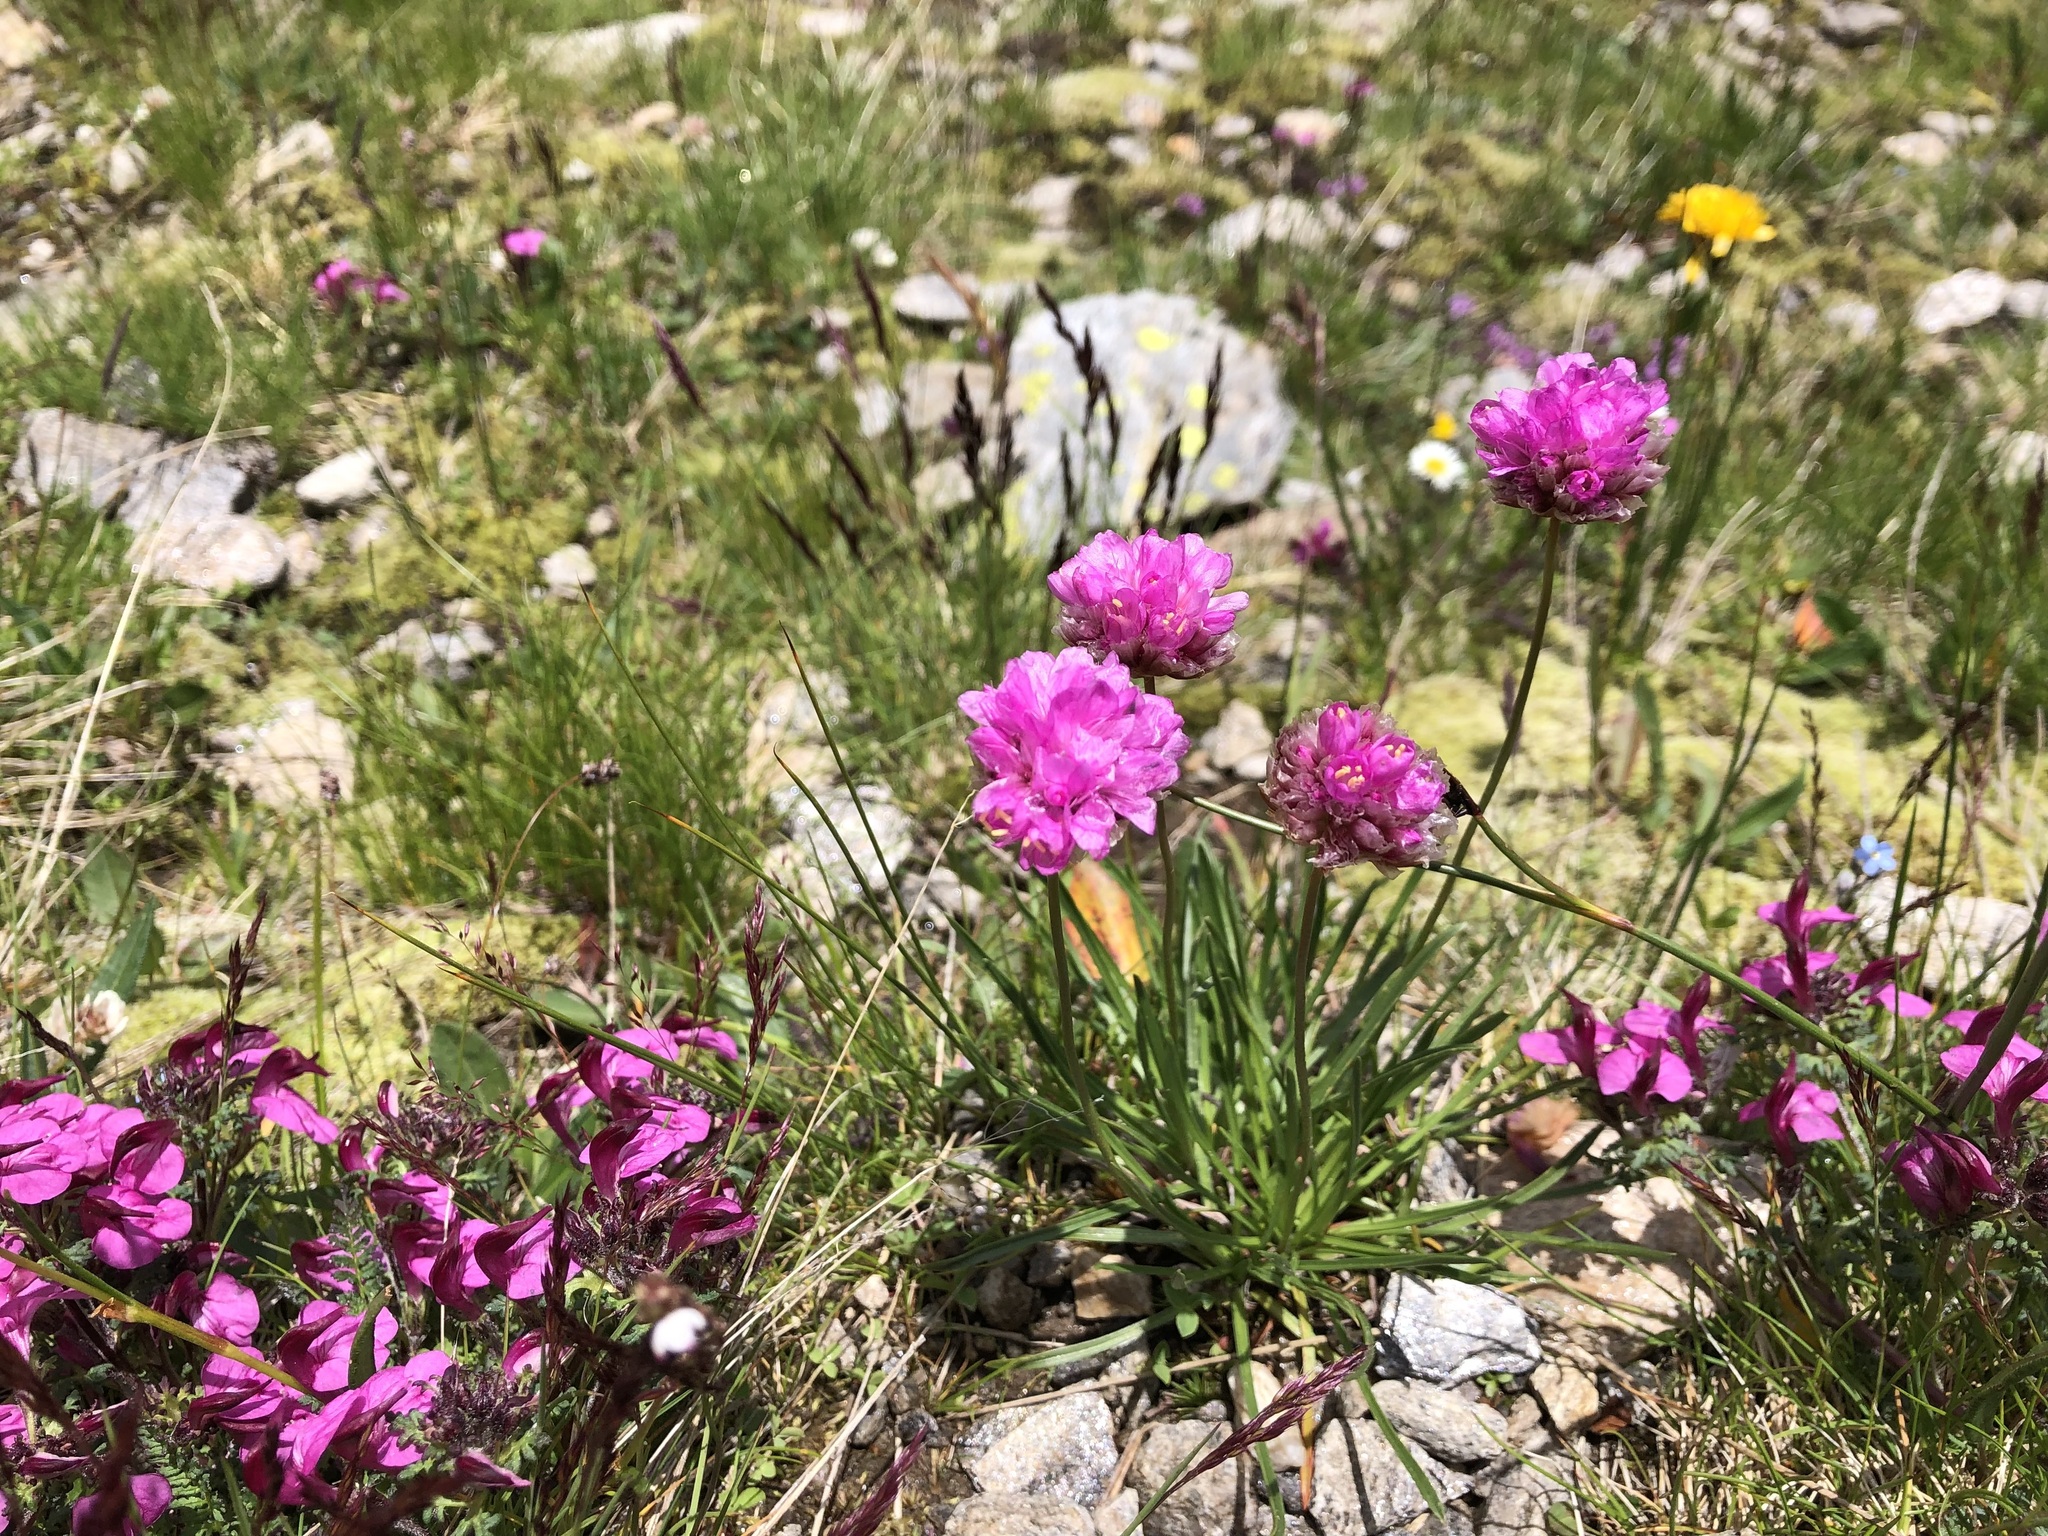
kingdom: Plantae
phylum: Tracheophyta
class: Magnoliopsida
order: Caryophyllales
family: Plumbaginaceae
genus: Armeria
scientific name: Armeria alpina
